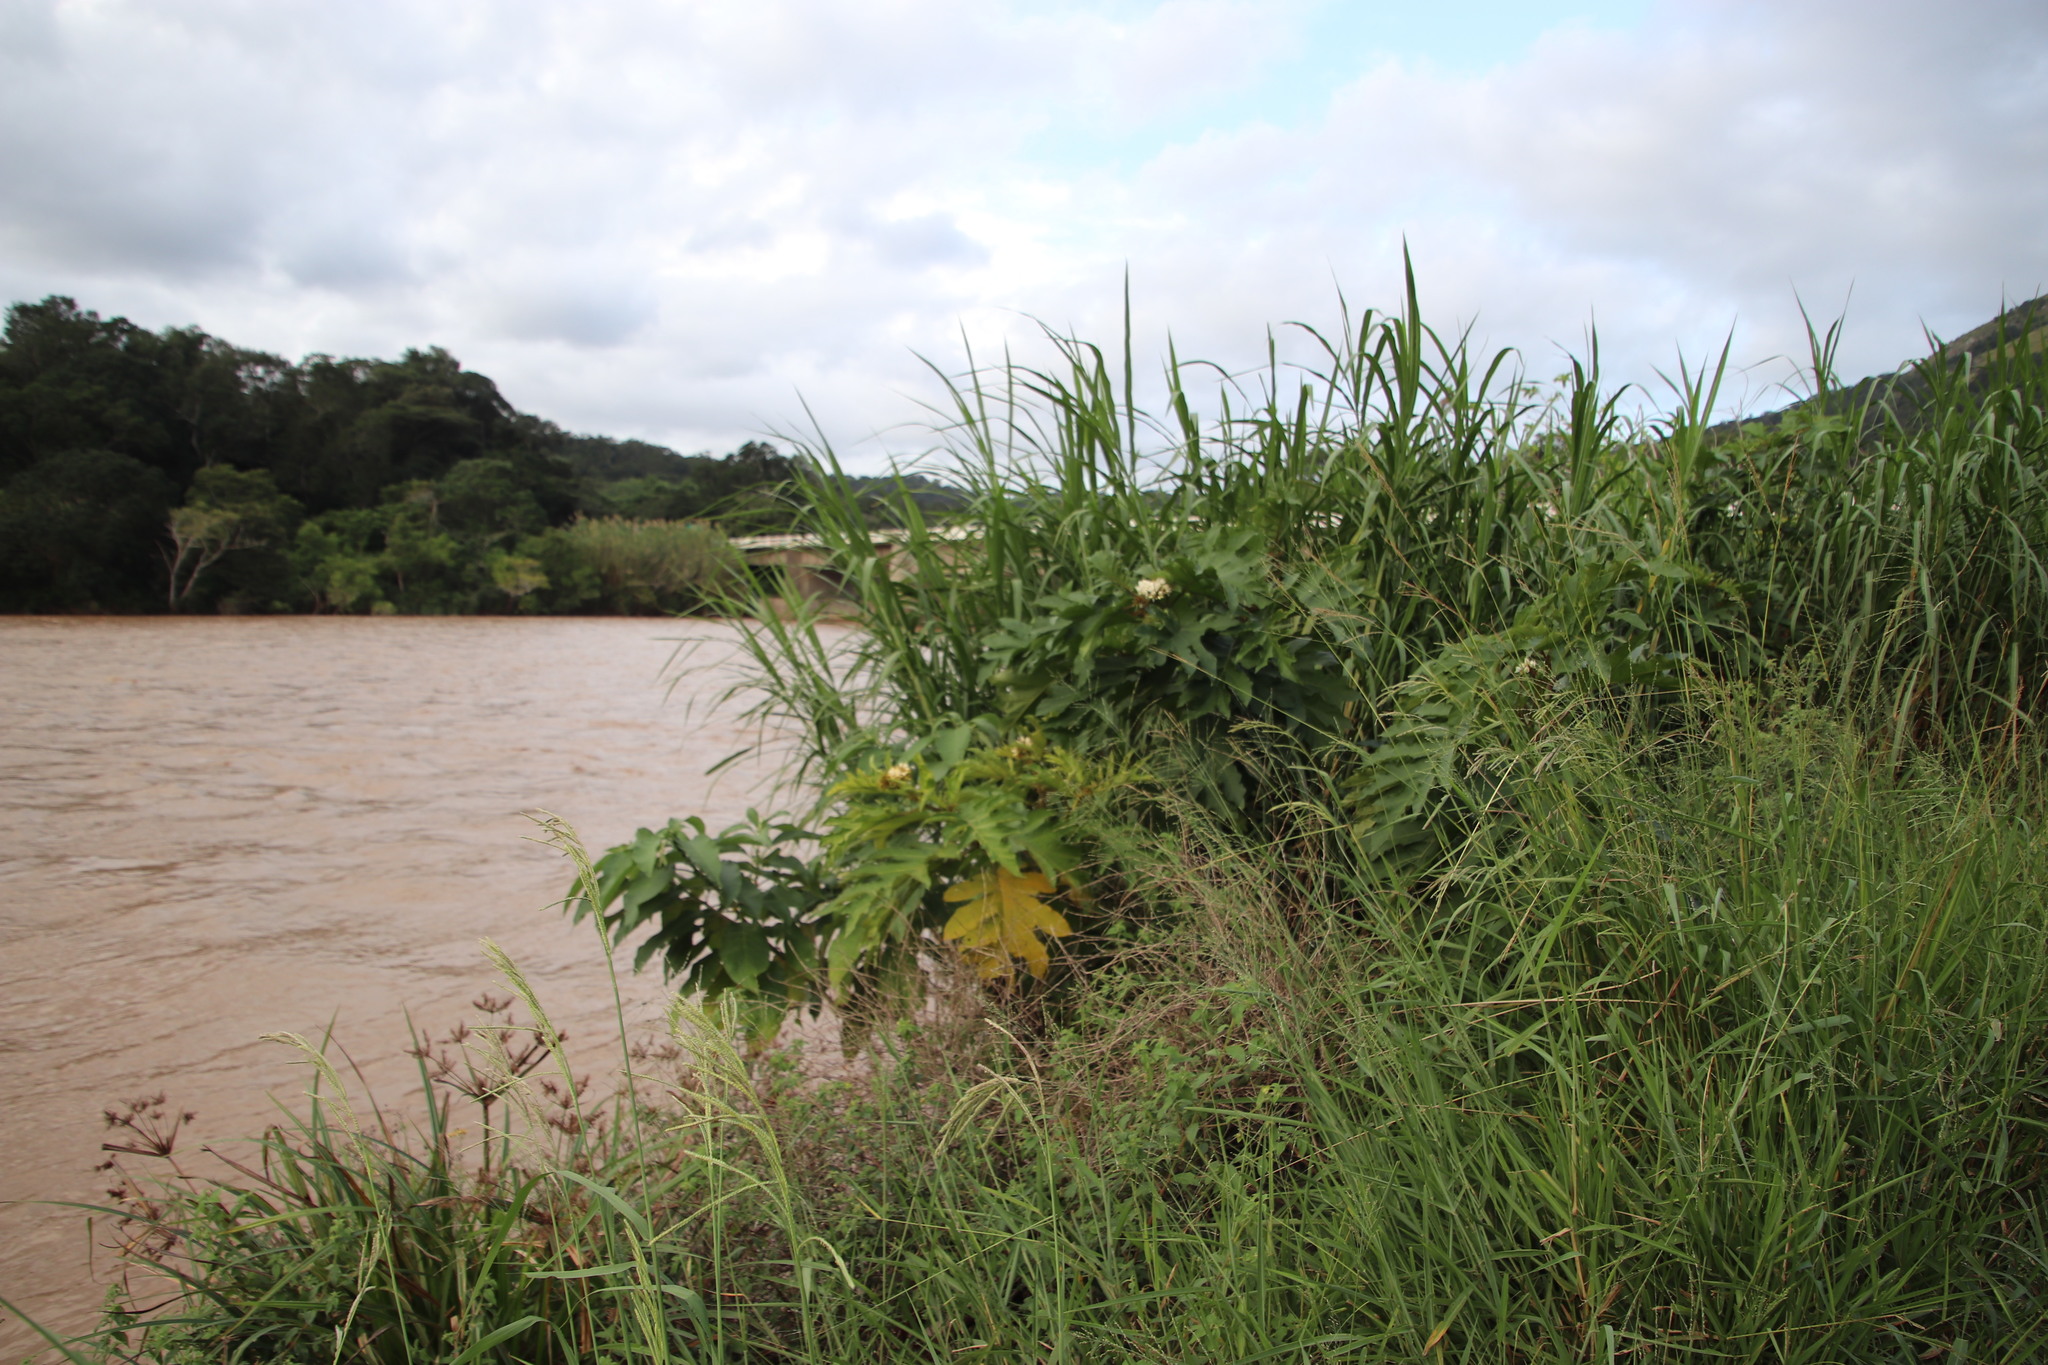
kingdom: Plantae
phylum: Tracheophyta
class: Magnoliopsida
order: Solanales
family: Solanaceae
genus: Solanum
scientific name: Solanum chrysotrichum
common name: Nightshade
